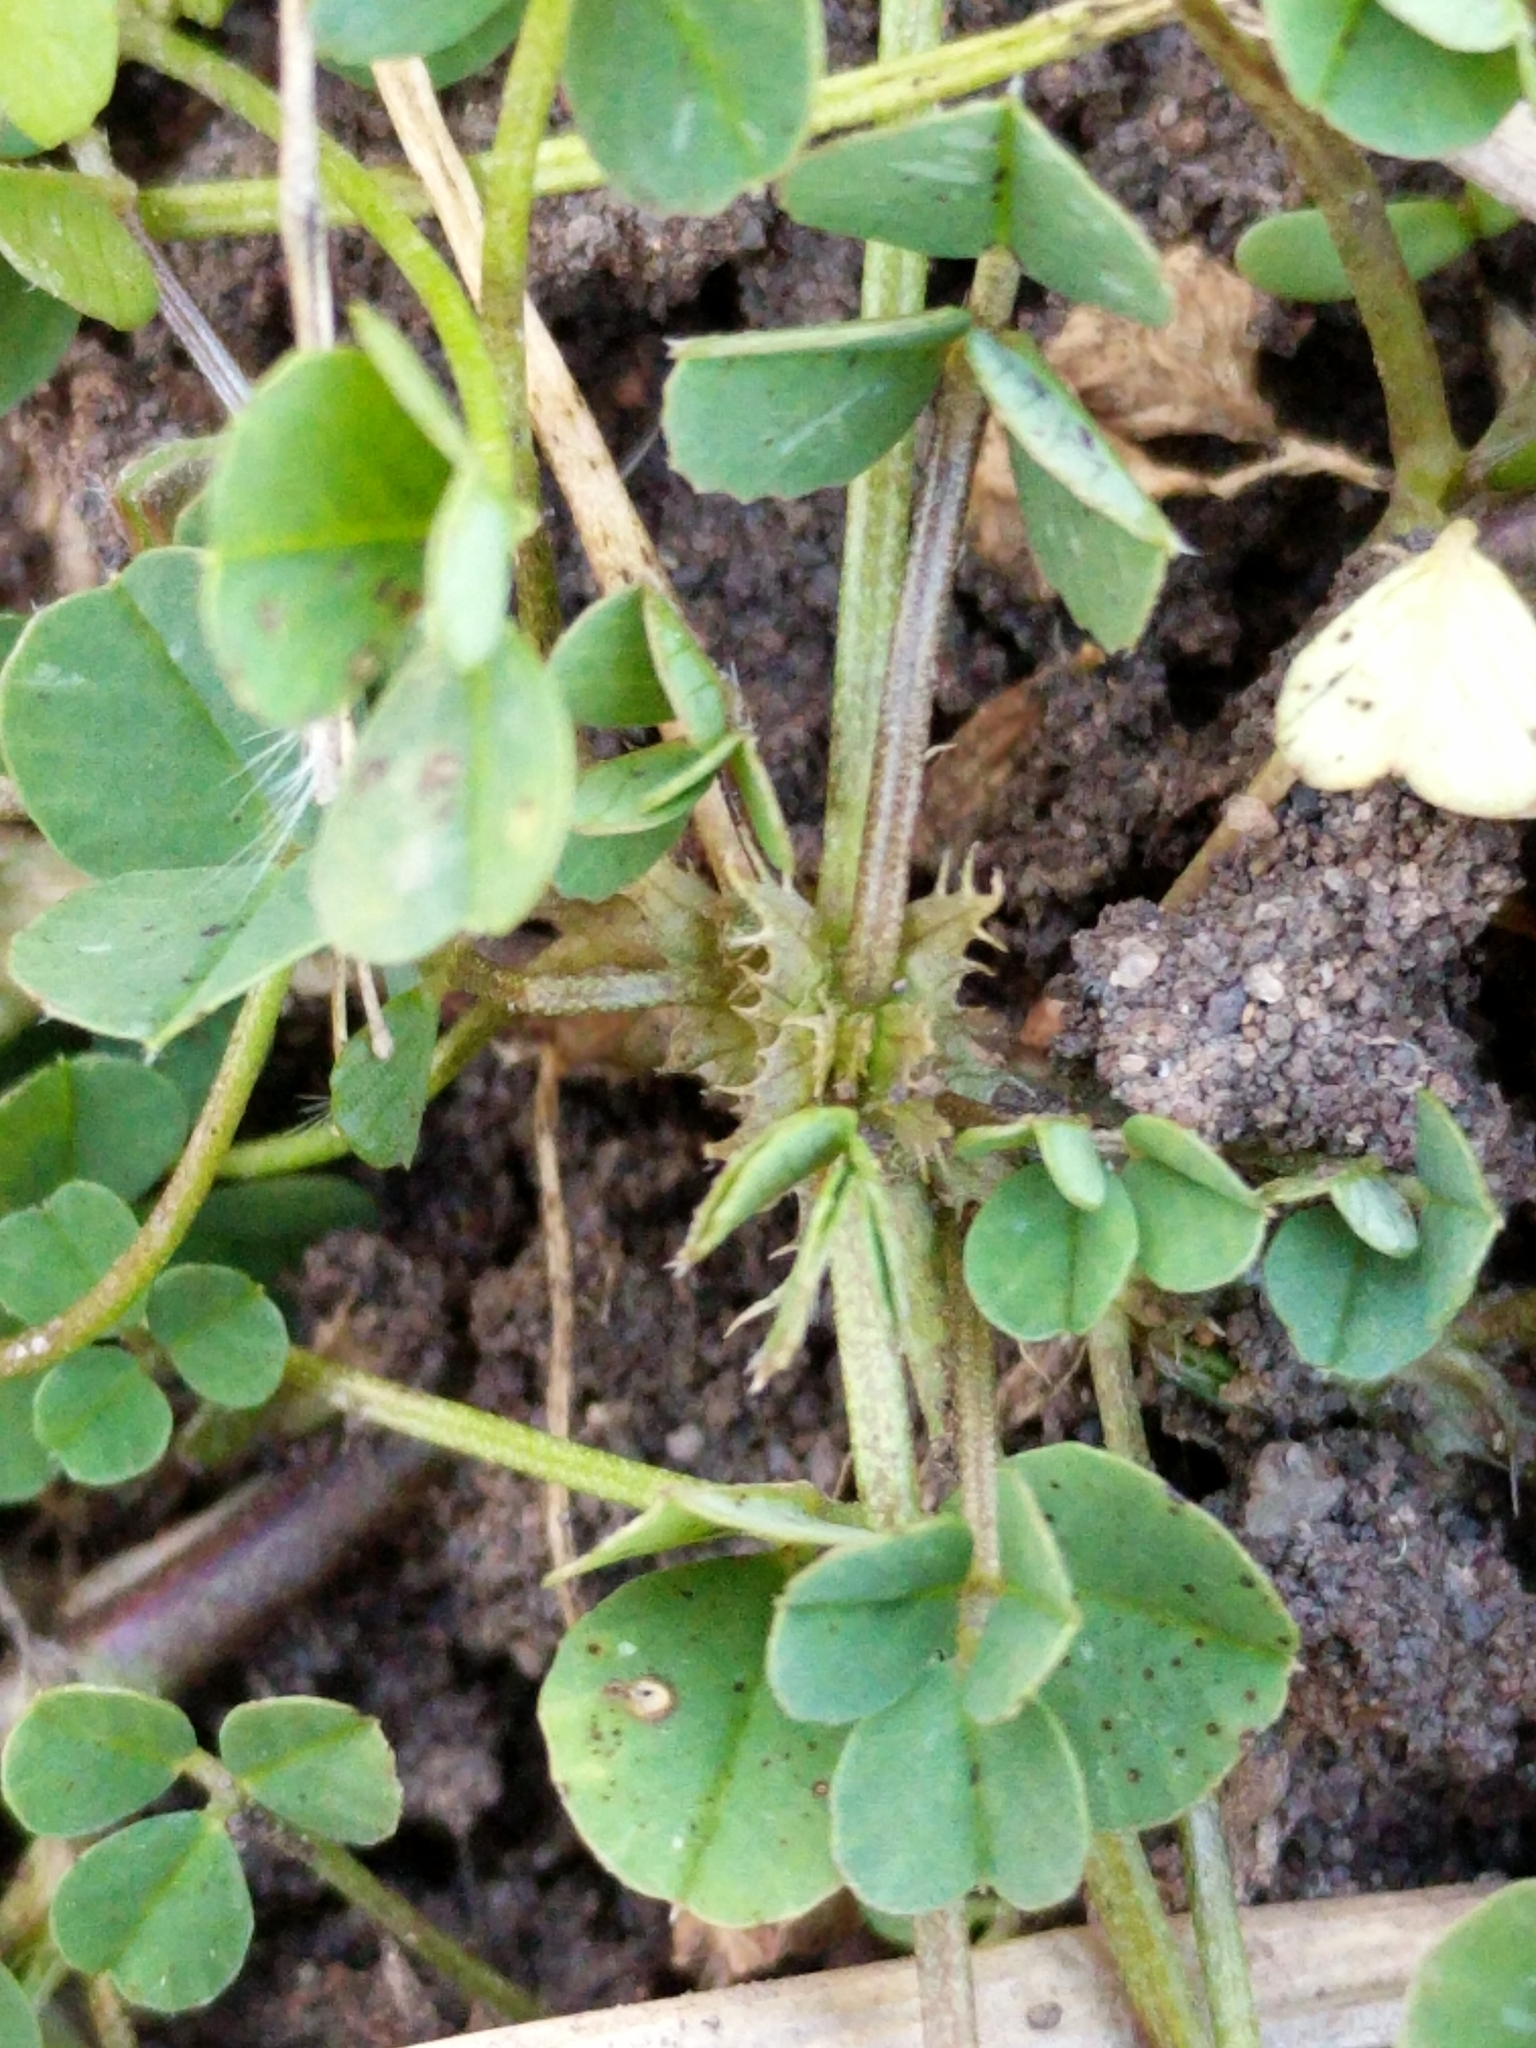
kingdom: Plantae
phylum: Tracheophyta
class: Magnoliopsida
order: Fabales
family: Fabaceae
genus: Medicago
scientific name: Medicago polymorpha
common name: Burclover
